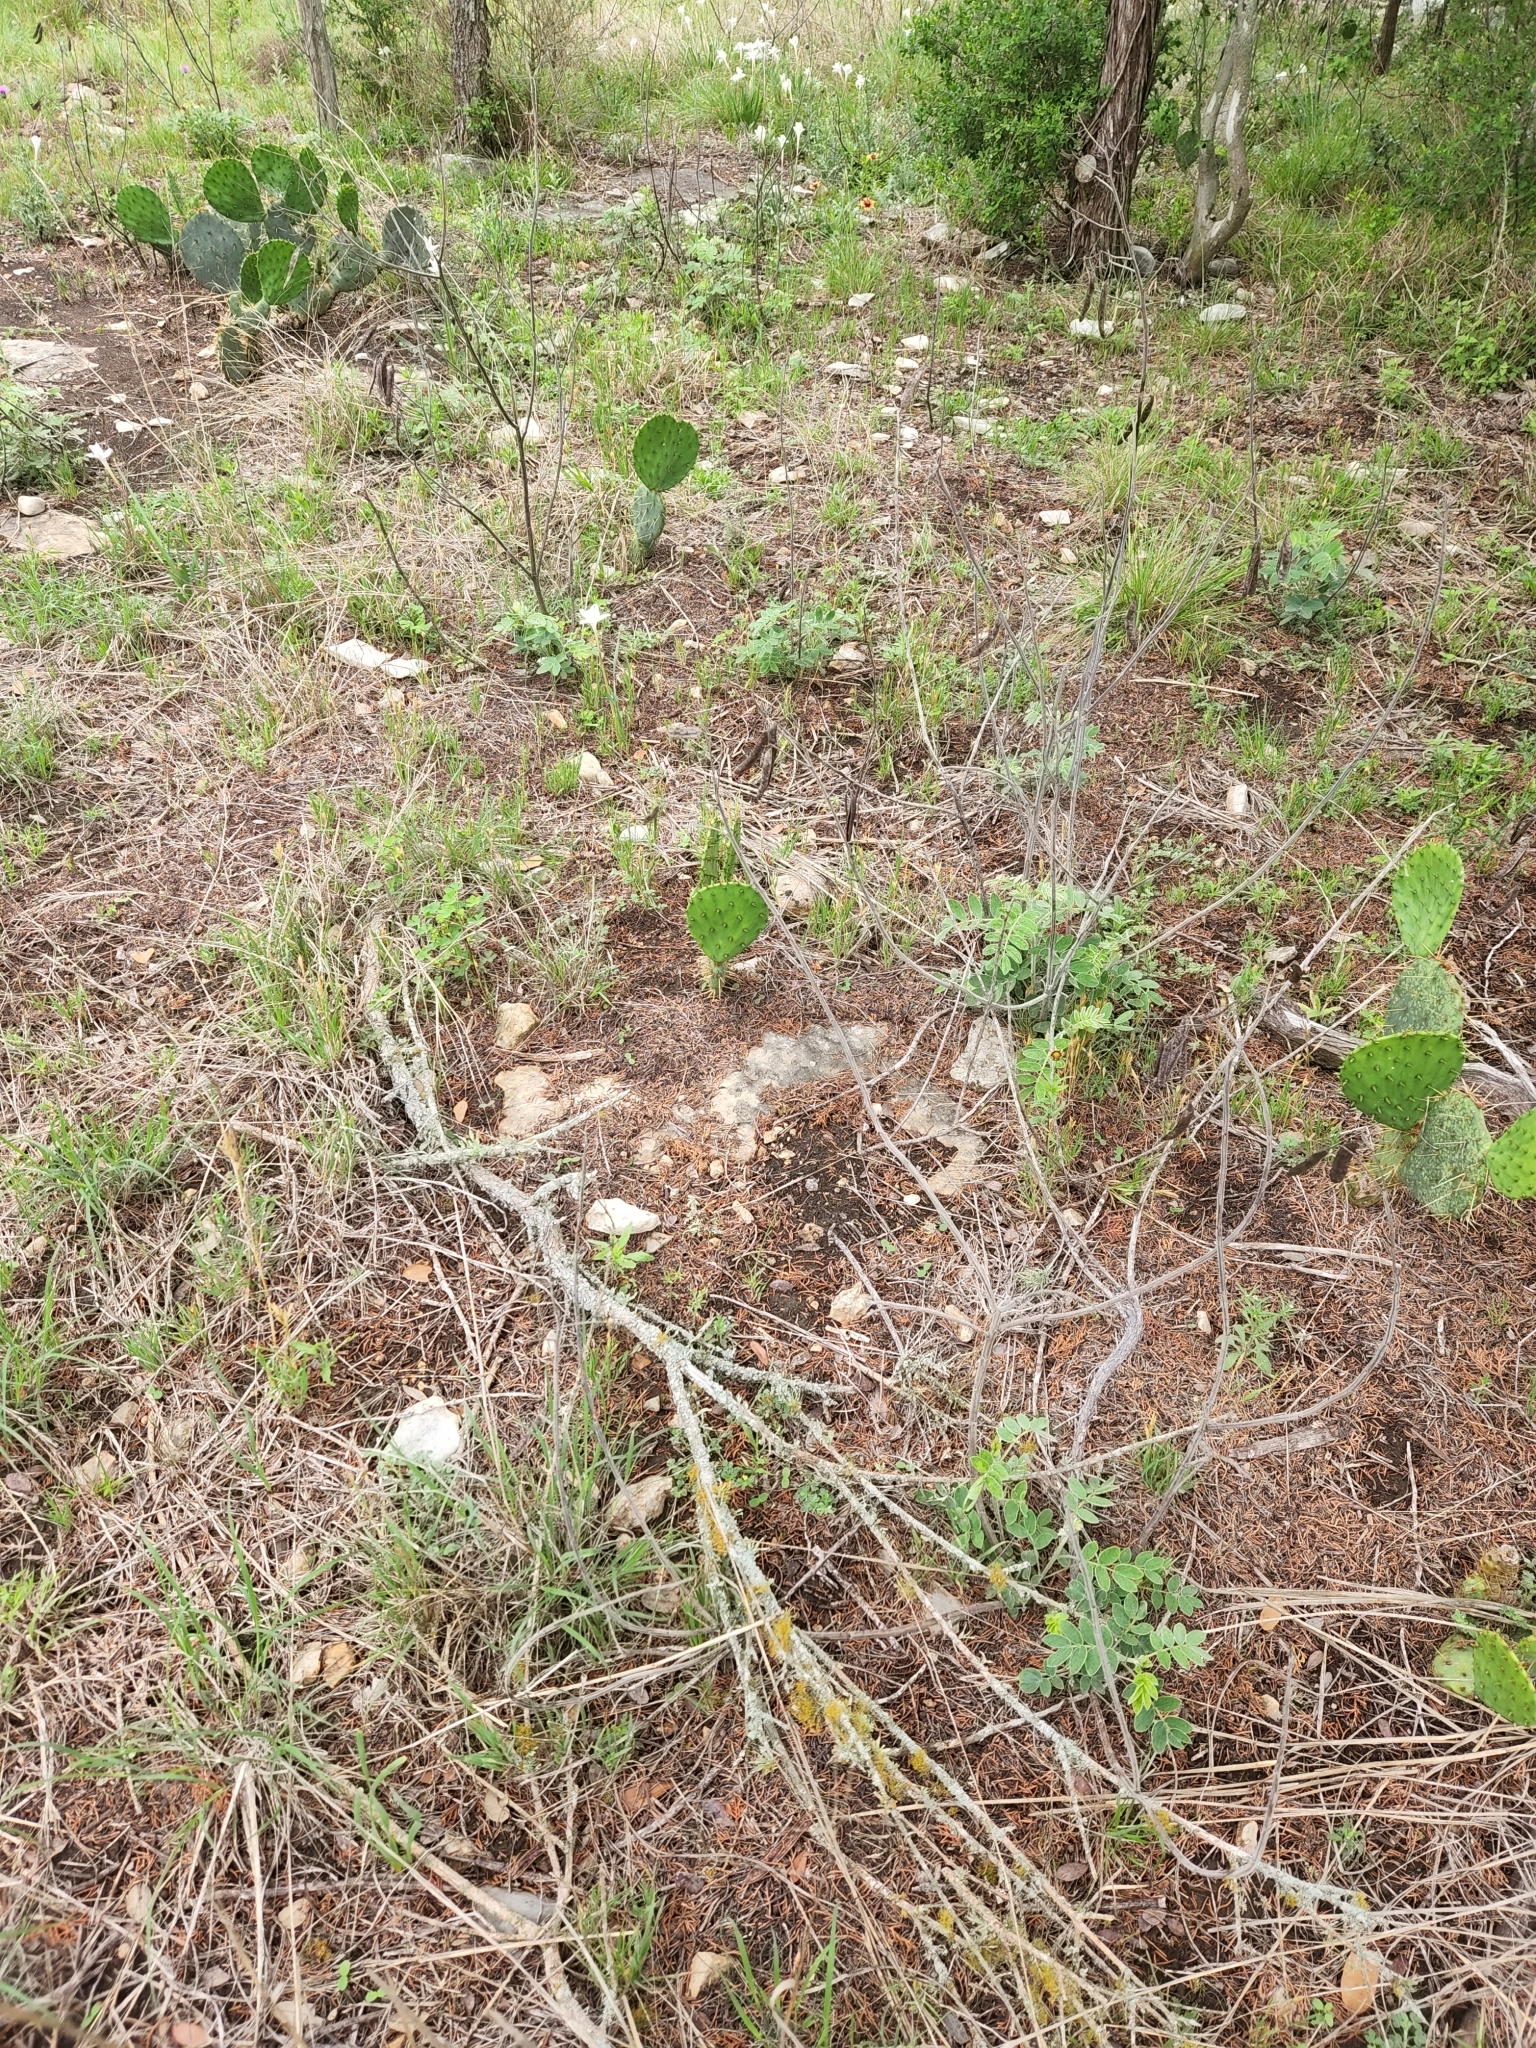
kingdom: Plantae
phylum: Tracheophyta
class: Magnoliopsida
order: Fabales
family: Fabaceae
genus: Senna
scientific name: Senna lindheimeriana
